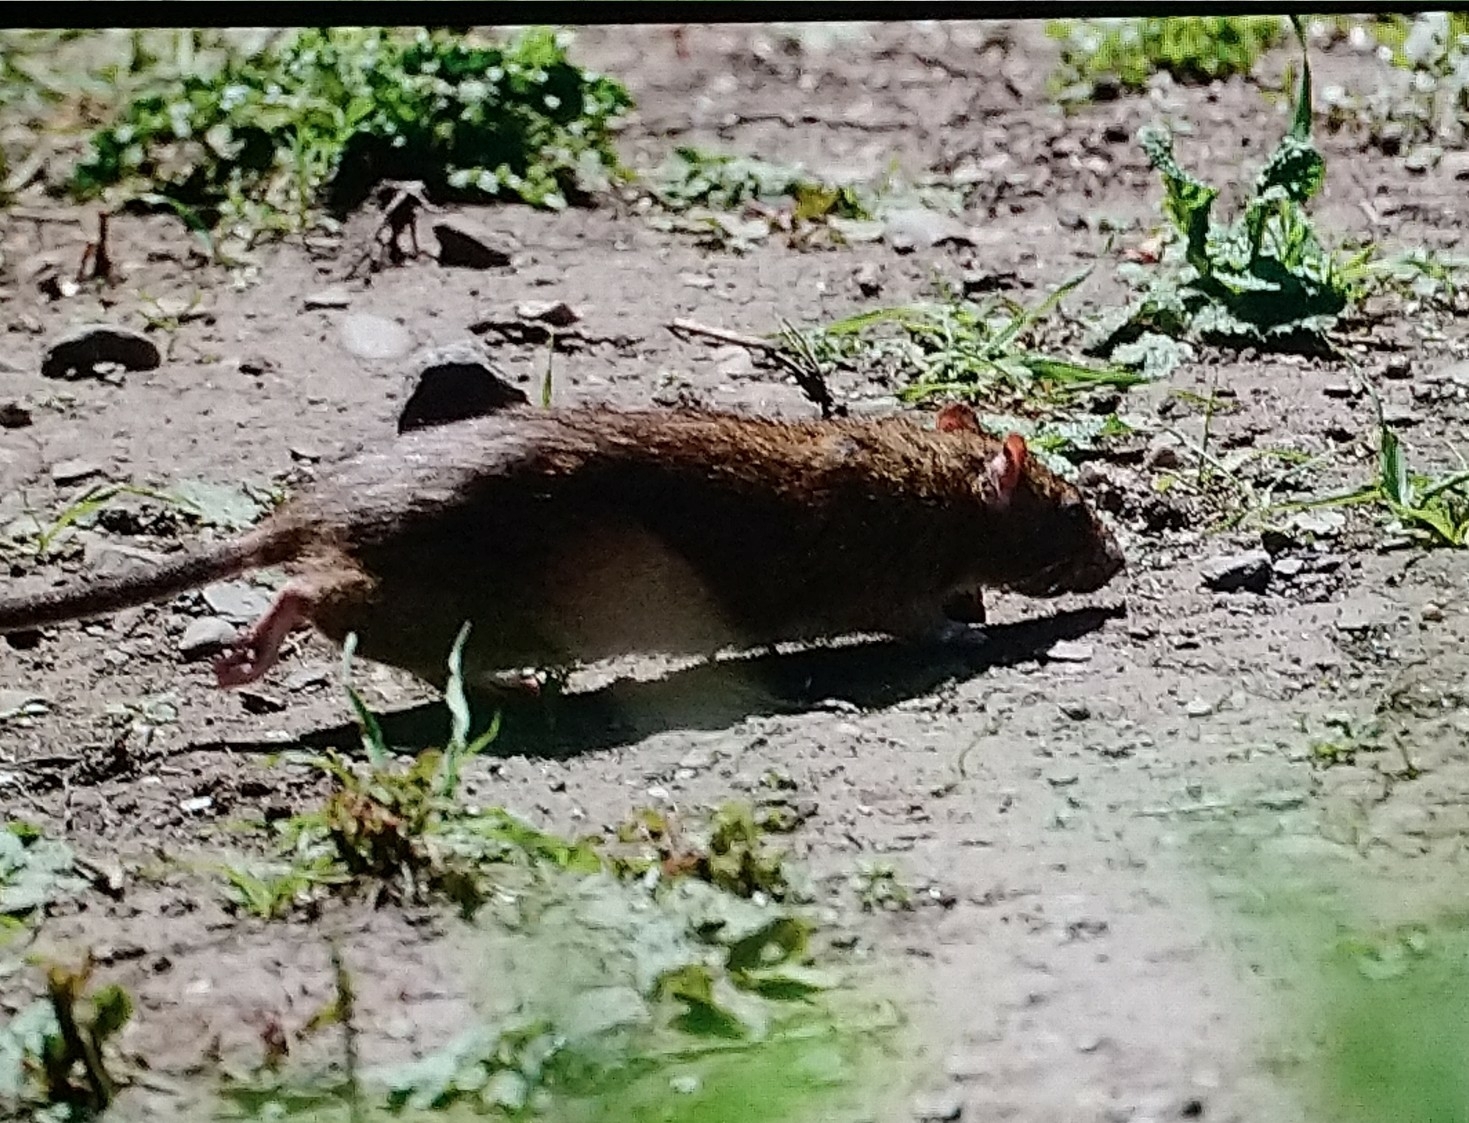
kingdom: Animalia
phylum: Chordata
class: Mammalia
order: Rodentia
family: Muridae
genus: Rattus
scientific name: Rattus norvegicus
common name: Brown rat
